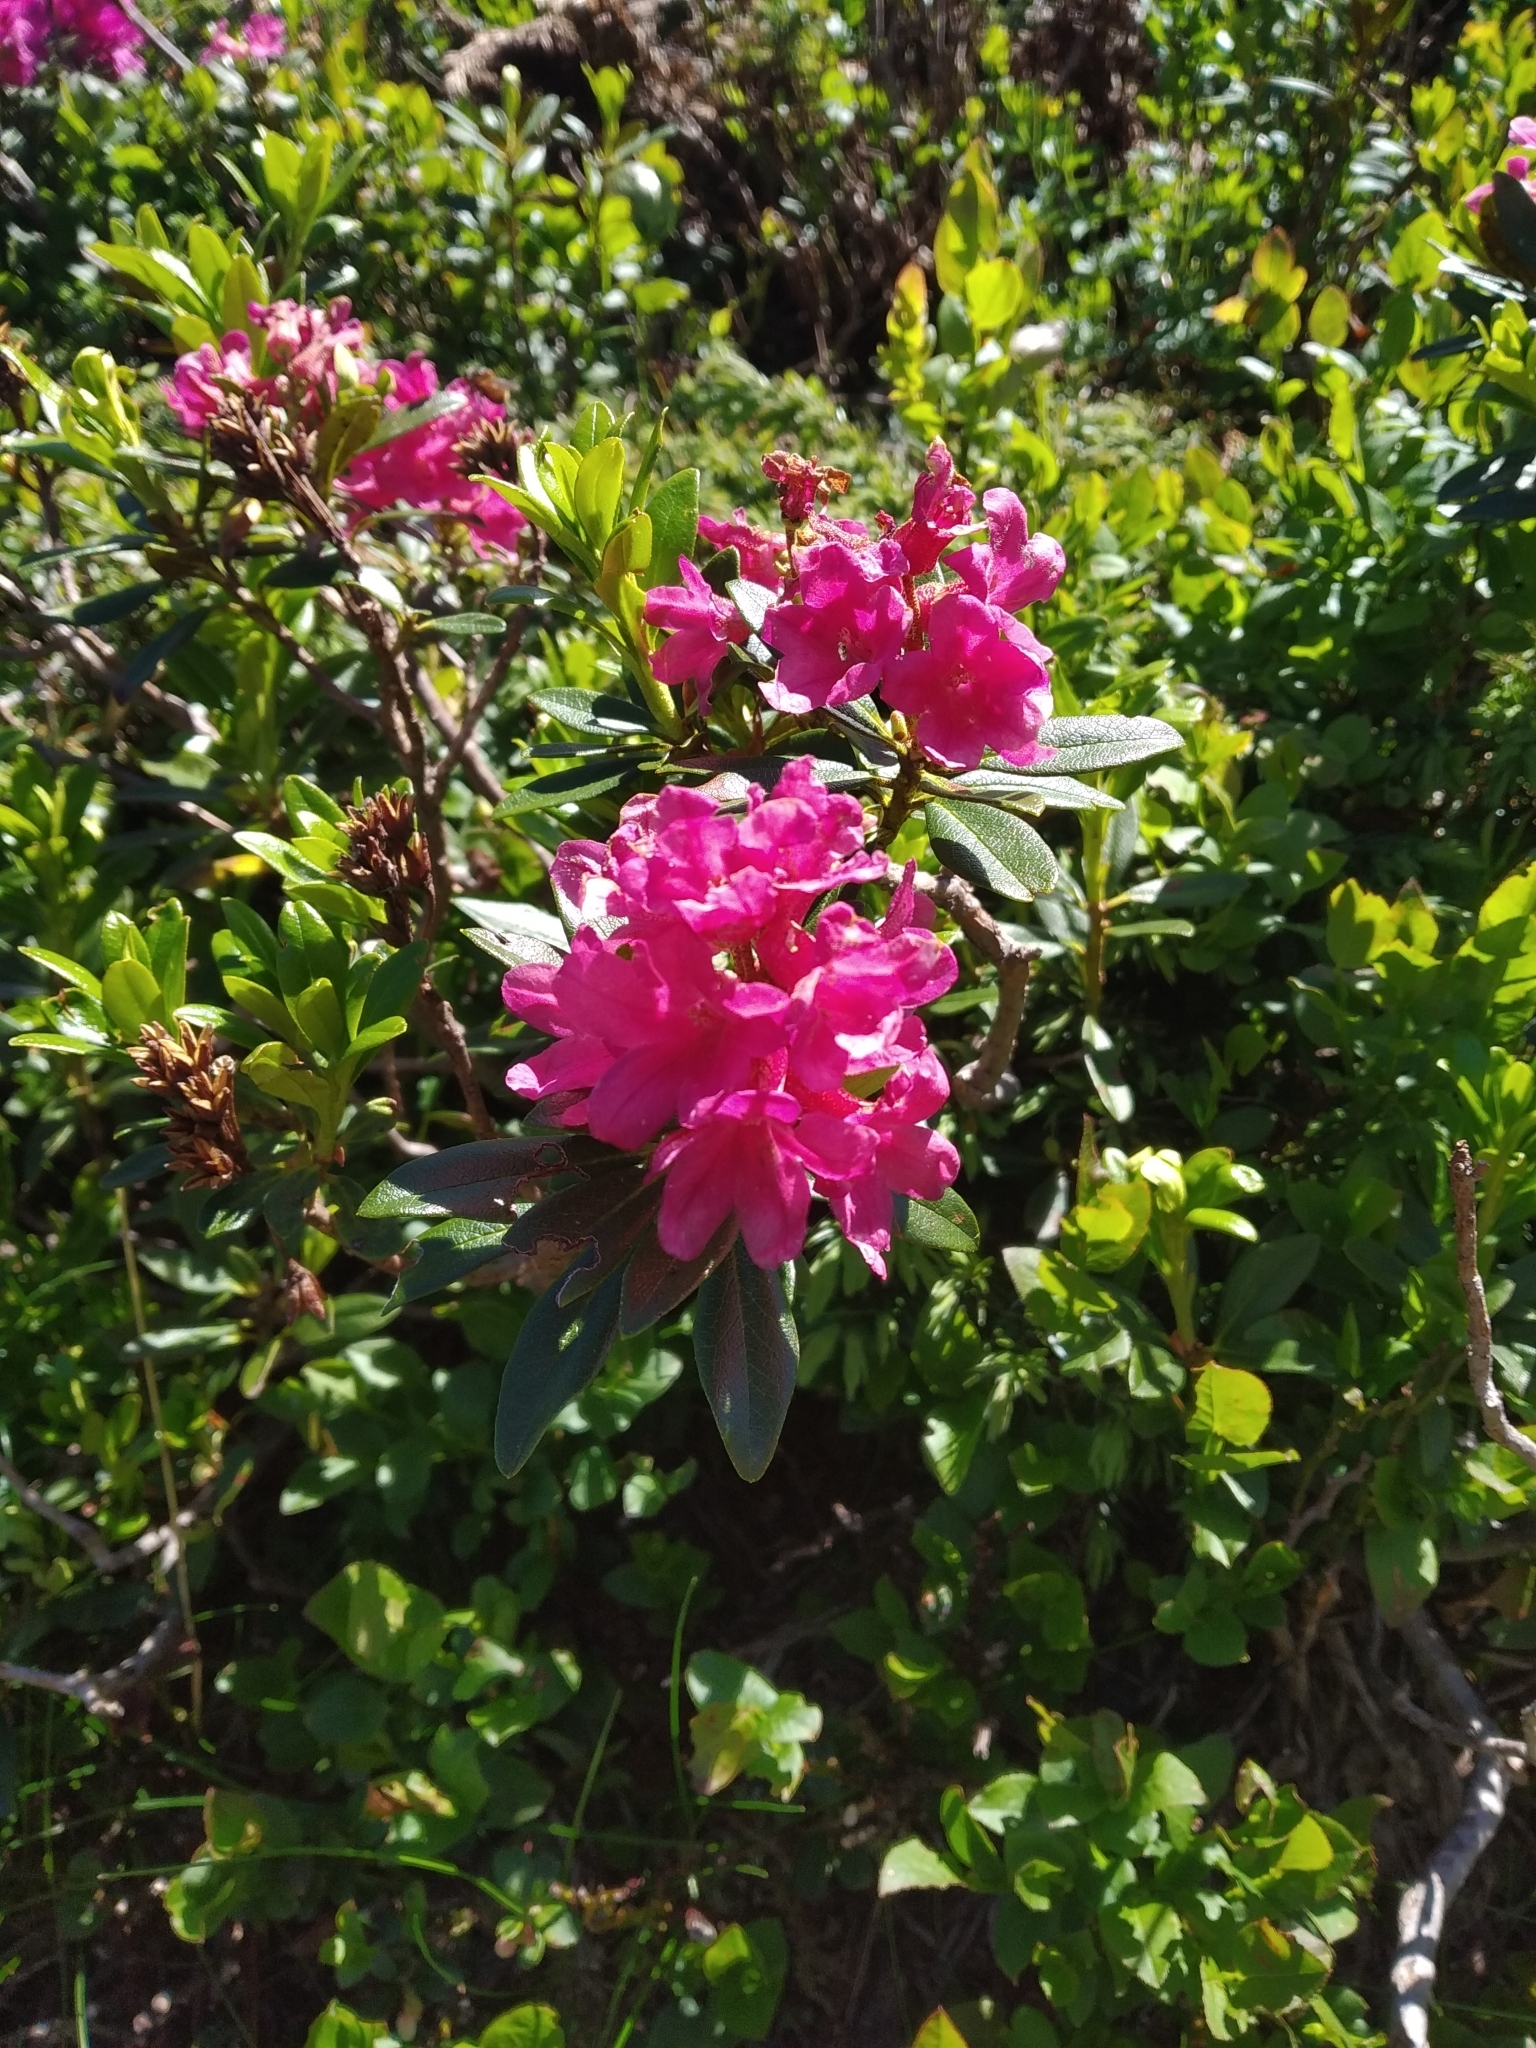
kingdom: Plantae
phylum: Tracheophyta
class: Magnoliopsida
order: Ericales
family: Ericaceae
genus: Rhododendron
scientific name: Rhododendron ferrugineum
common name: Alpenrose
